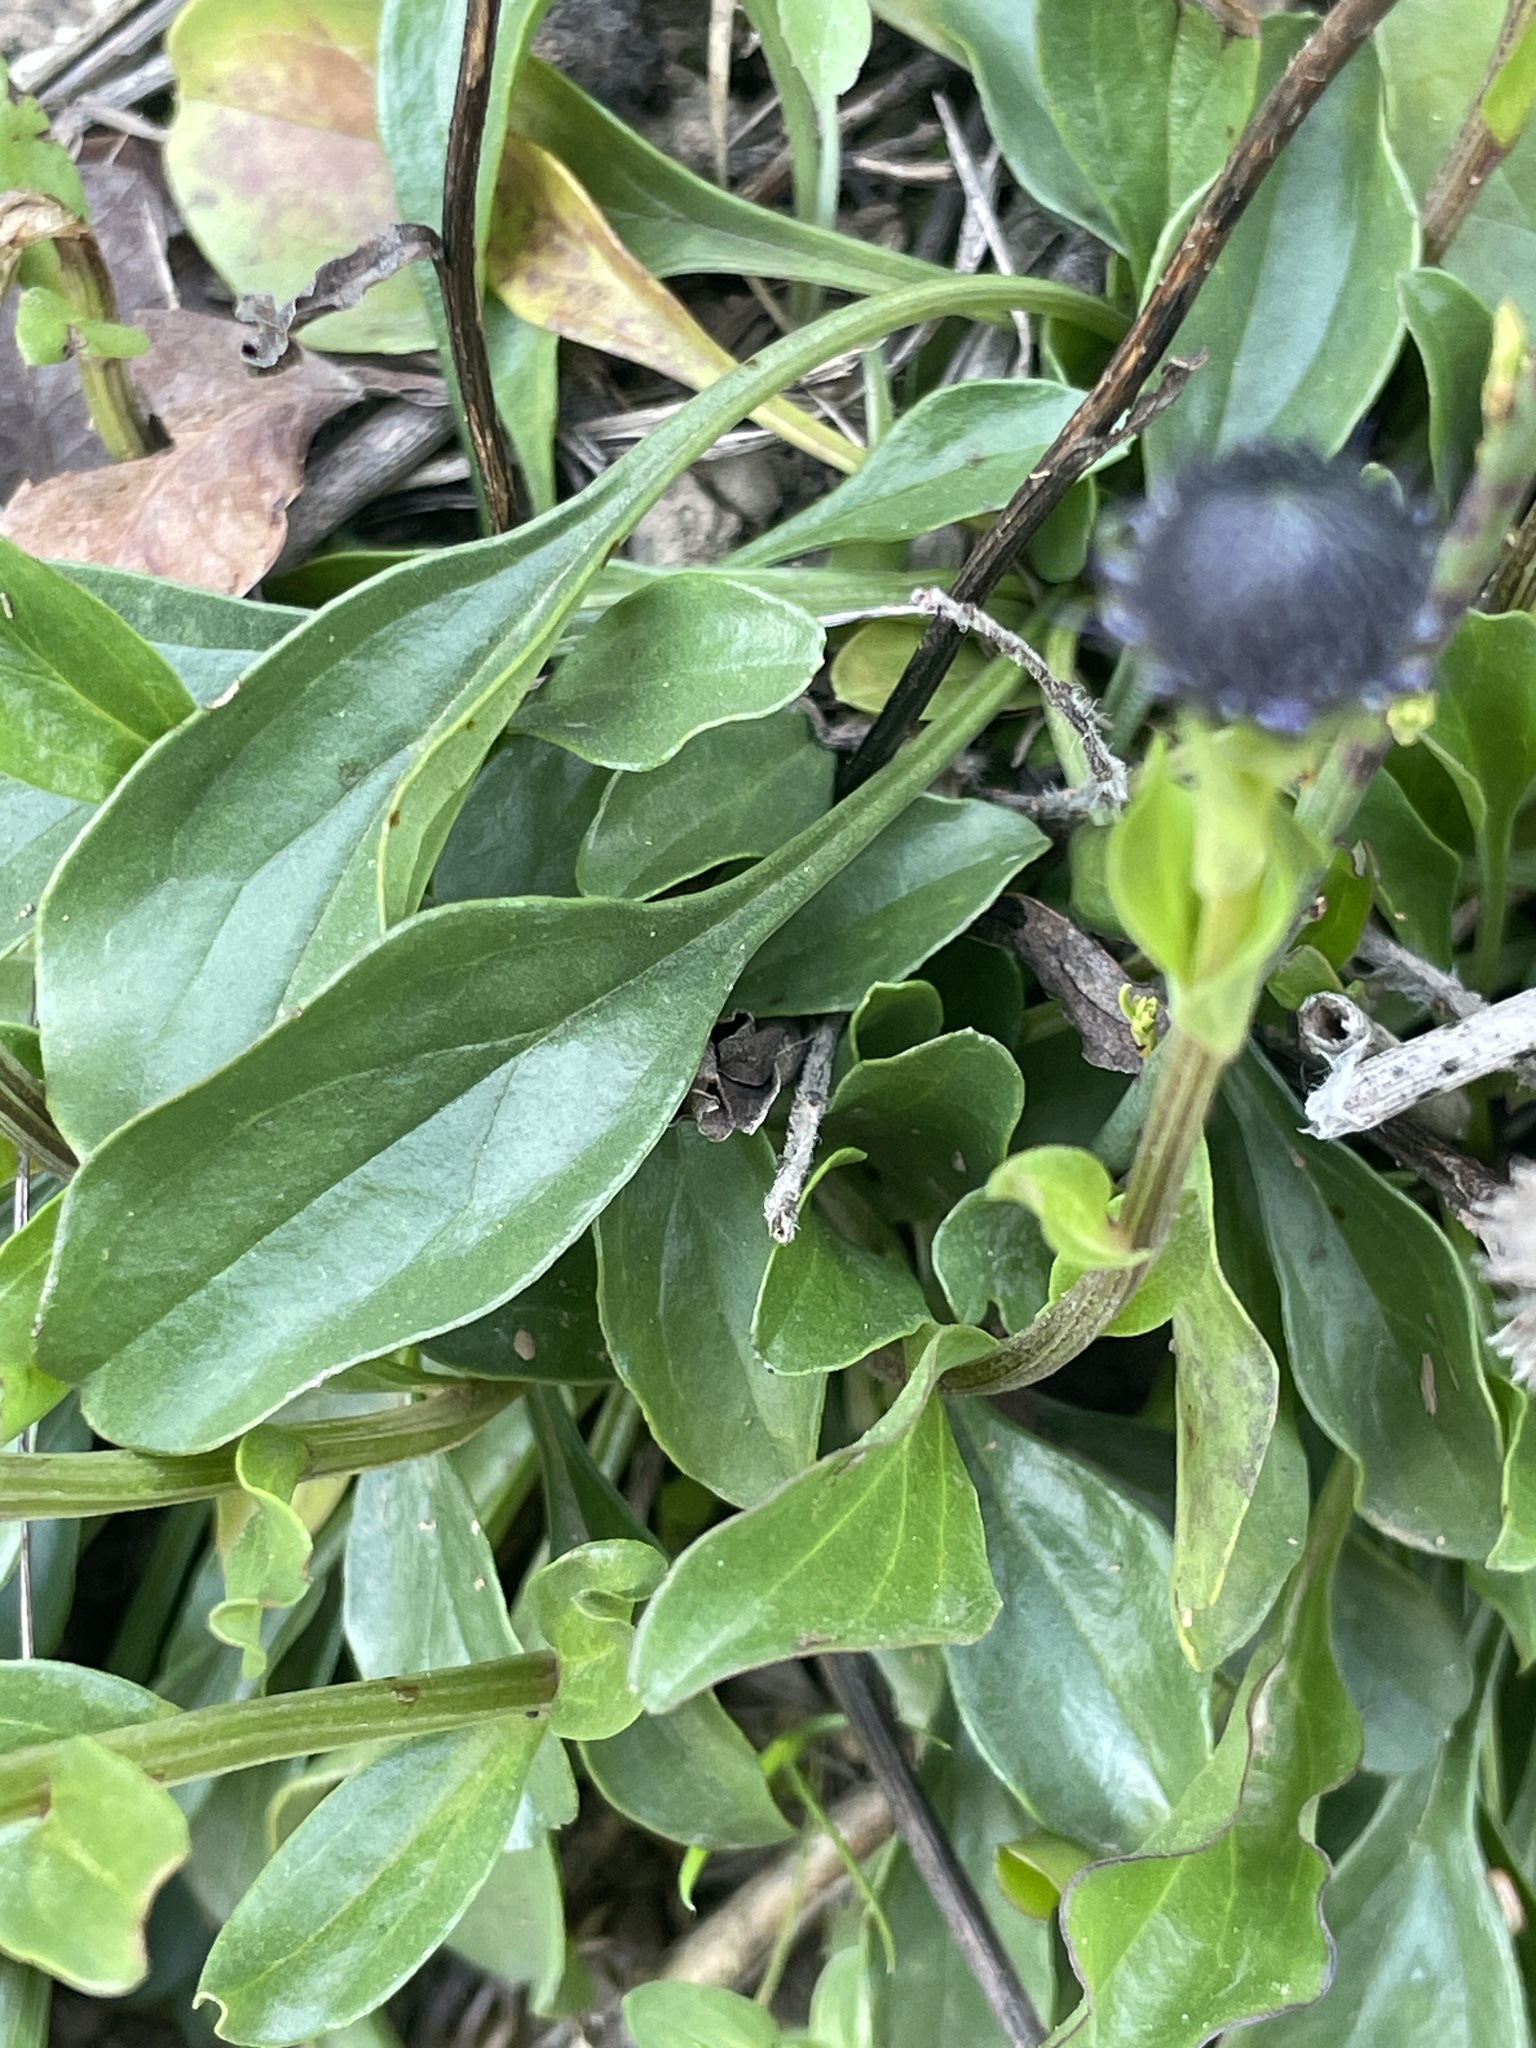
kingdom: Plantae
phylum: Tracheophyta
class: Magnoliopsida
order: Lamiales
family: Plantaginaceae
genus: Globularia
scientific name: Globularia bisnagarica
